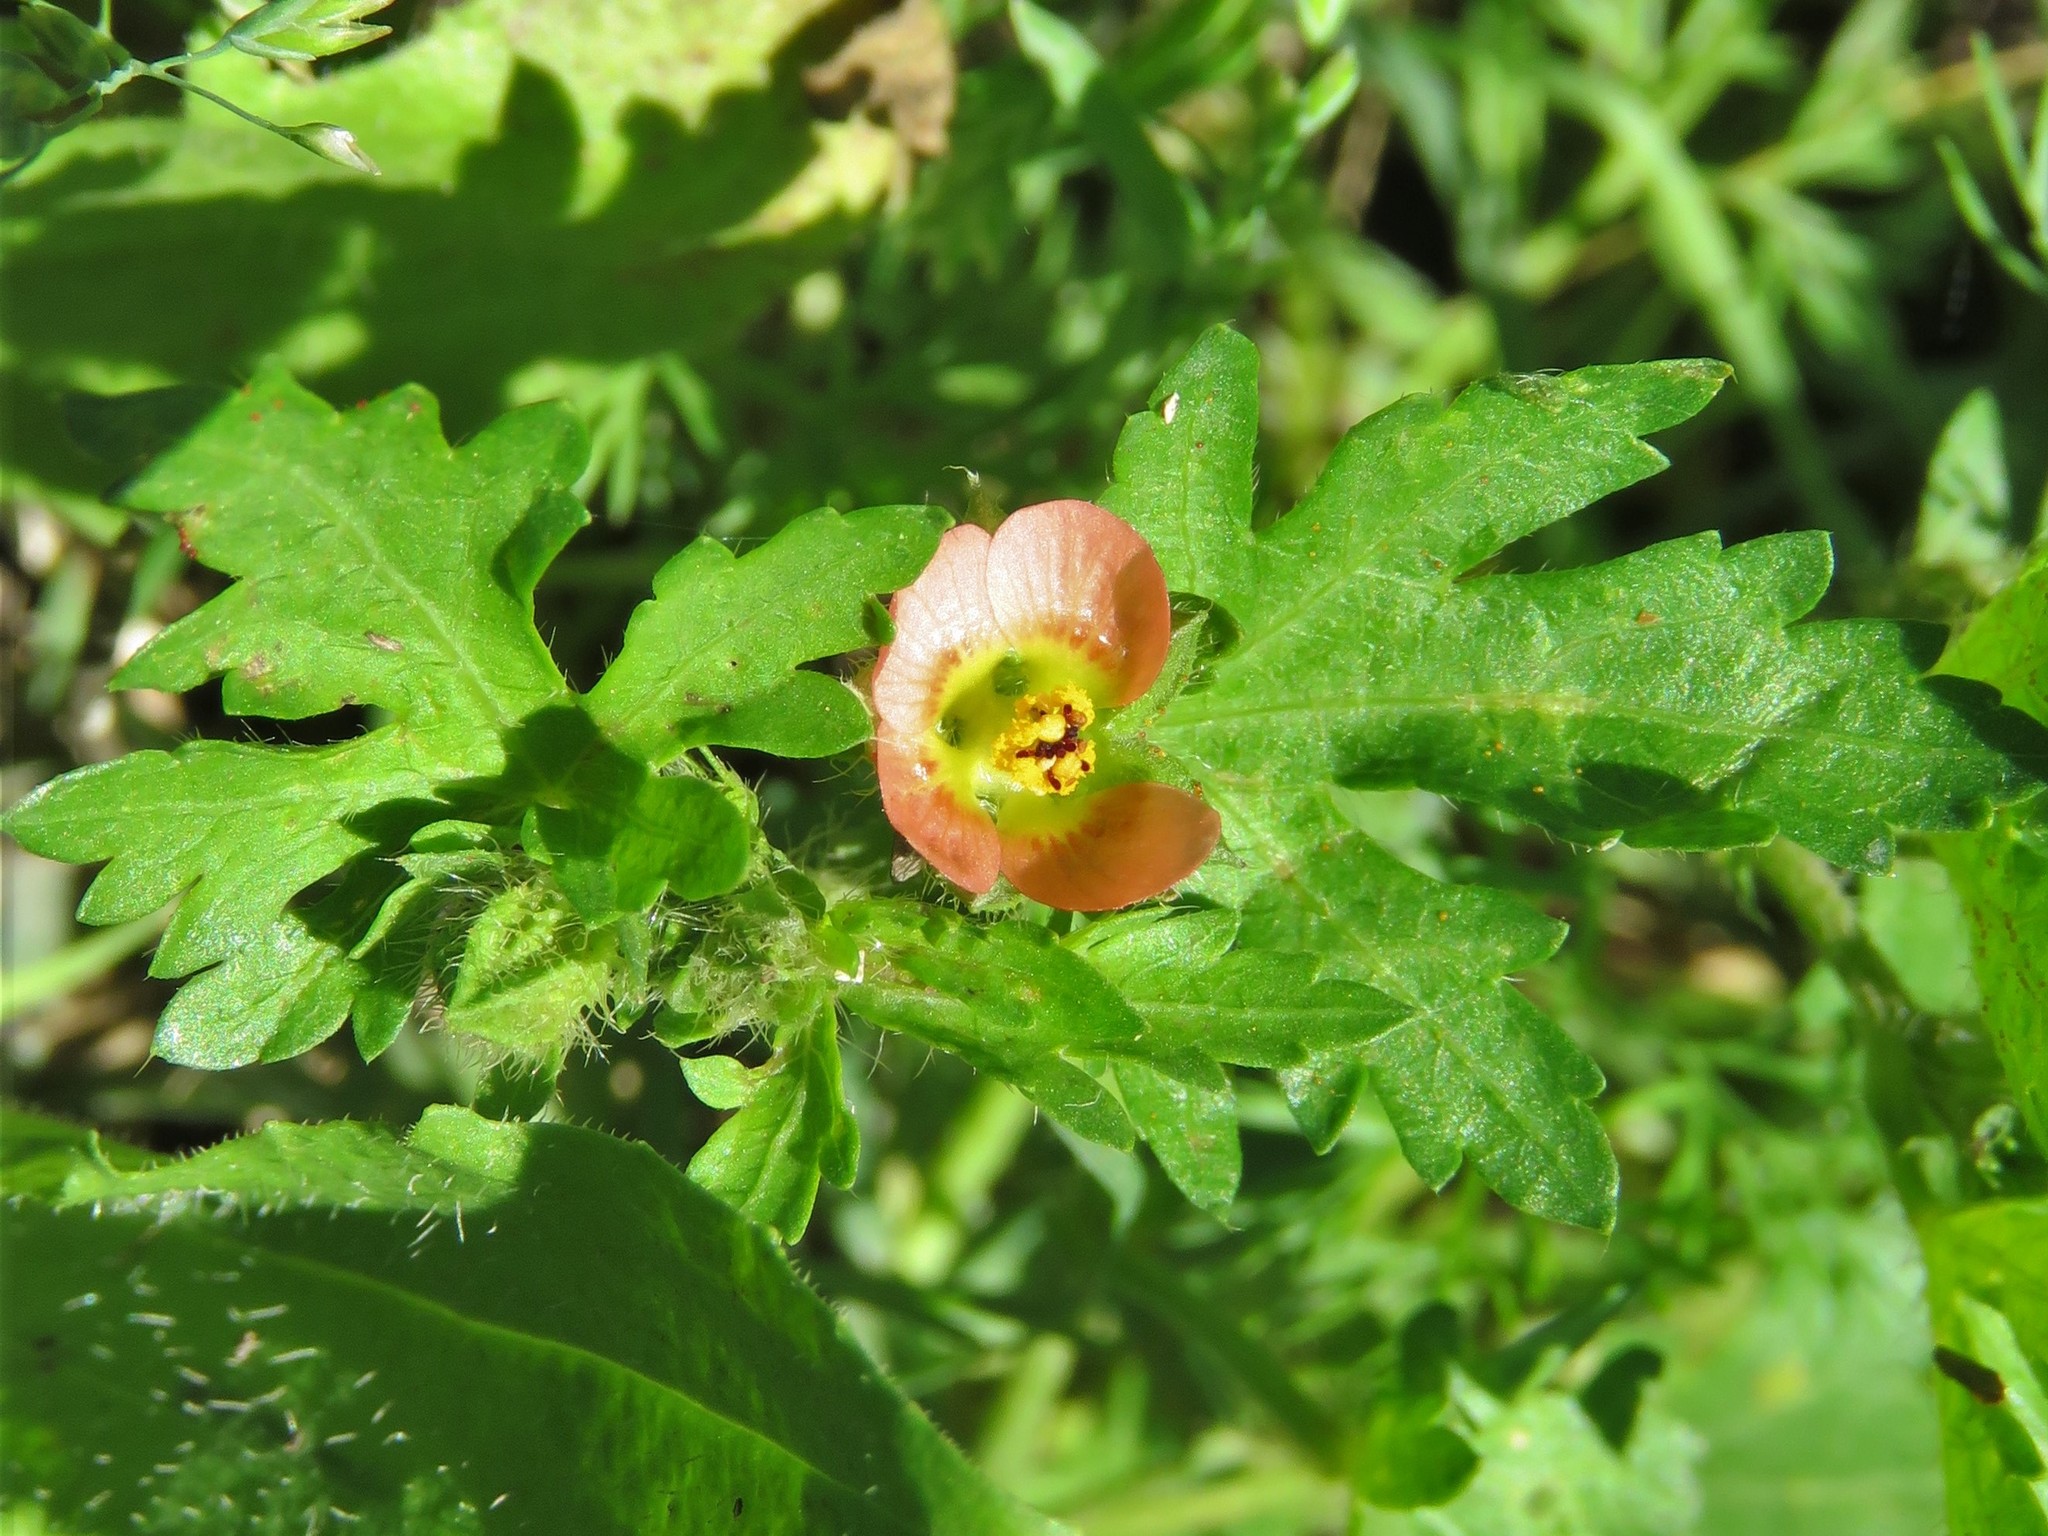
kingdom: Plantae
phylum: Tracheophyta
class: Magnoliopsida
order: Malvales
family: Malvaceae
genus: Modiola
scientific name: Modiola caroliniana
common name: Carolina bristlemallow
